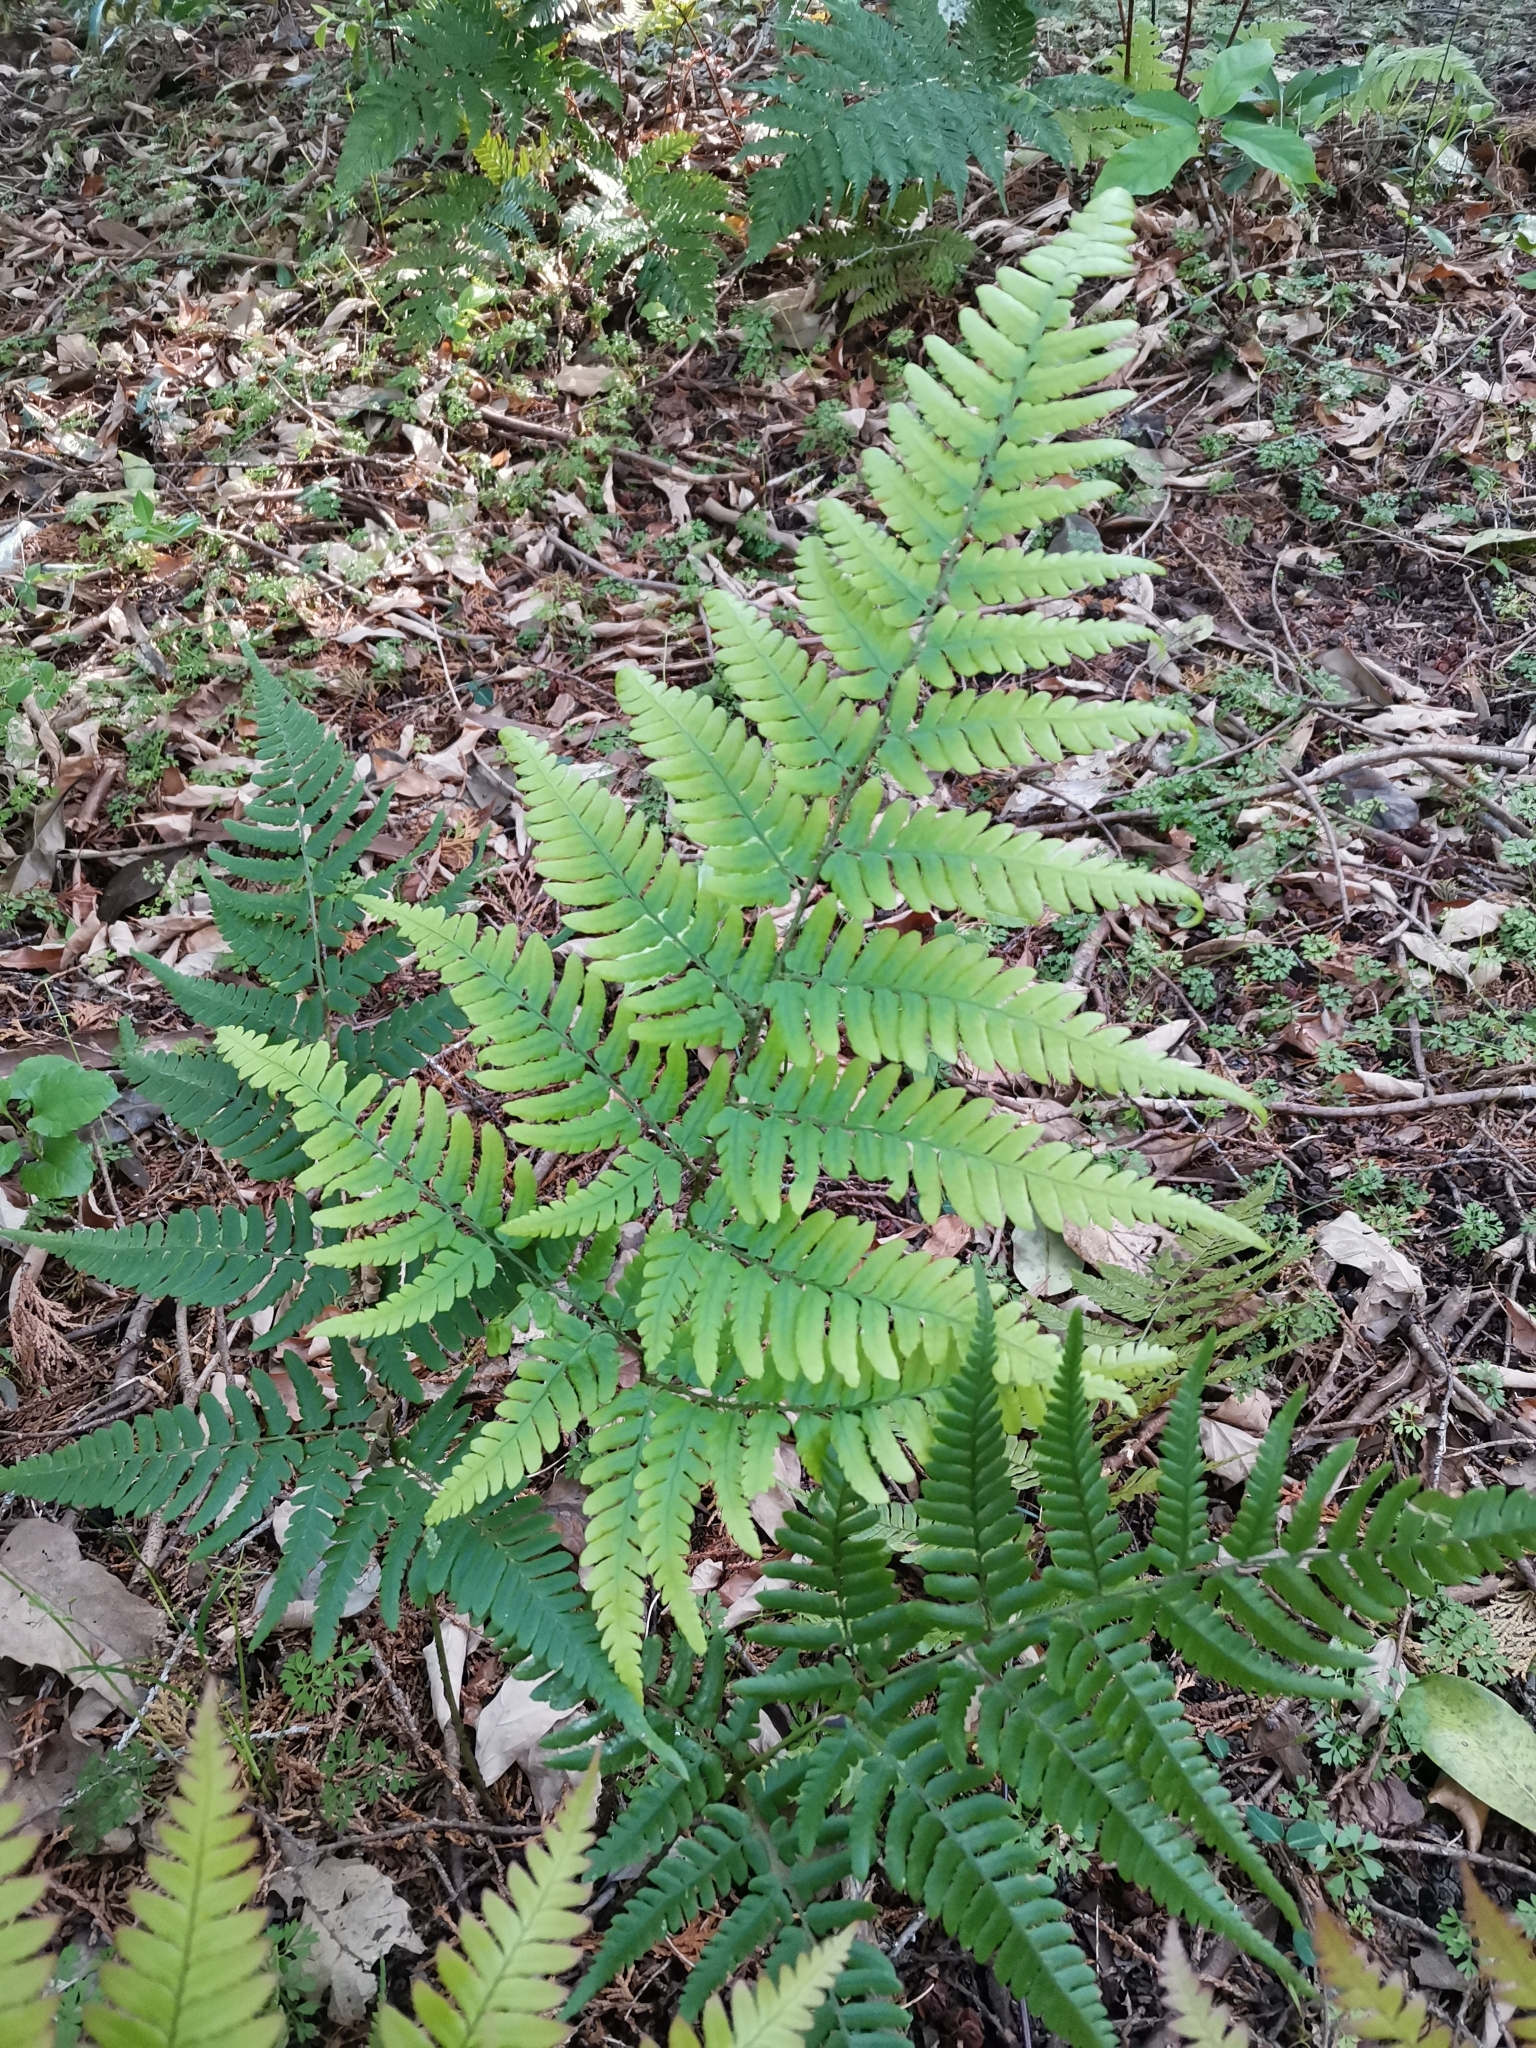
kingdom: Plantae
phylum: Tracheophyta
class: Polypodiopsida
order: Polypodiales
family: Dryopteridaceae
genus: Dryopteris
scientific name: Dryopteris immixta
